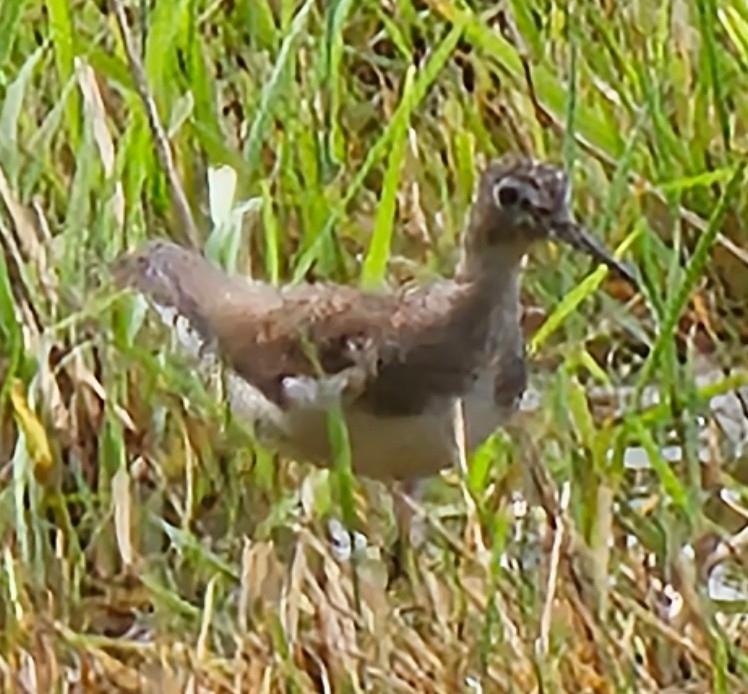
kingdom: Animalia
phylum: Chordata
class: Aves
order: Charadriiformes
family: Scolopacidae
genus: Tringa
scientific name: Tringa solitaria
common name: Solitary sandpiper
